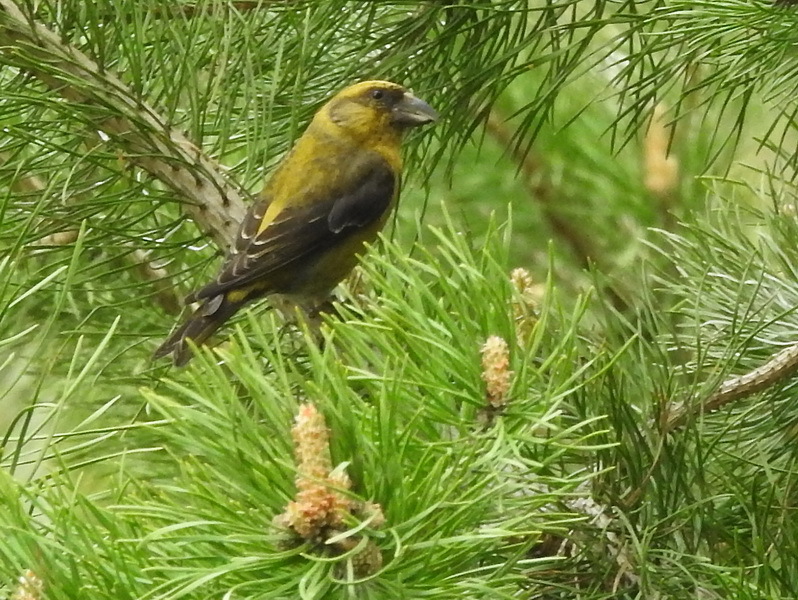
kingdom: Animalia
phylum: Chordata
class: Aves
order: Passeriformes
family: Fringillidae
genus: Loxia
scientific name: Loxia curvirostra
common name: Red crossbill
